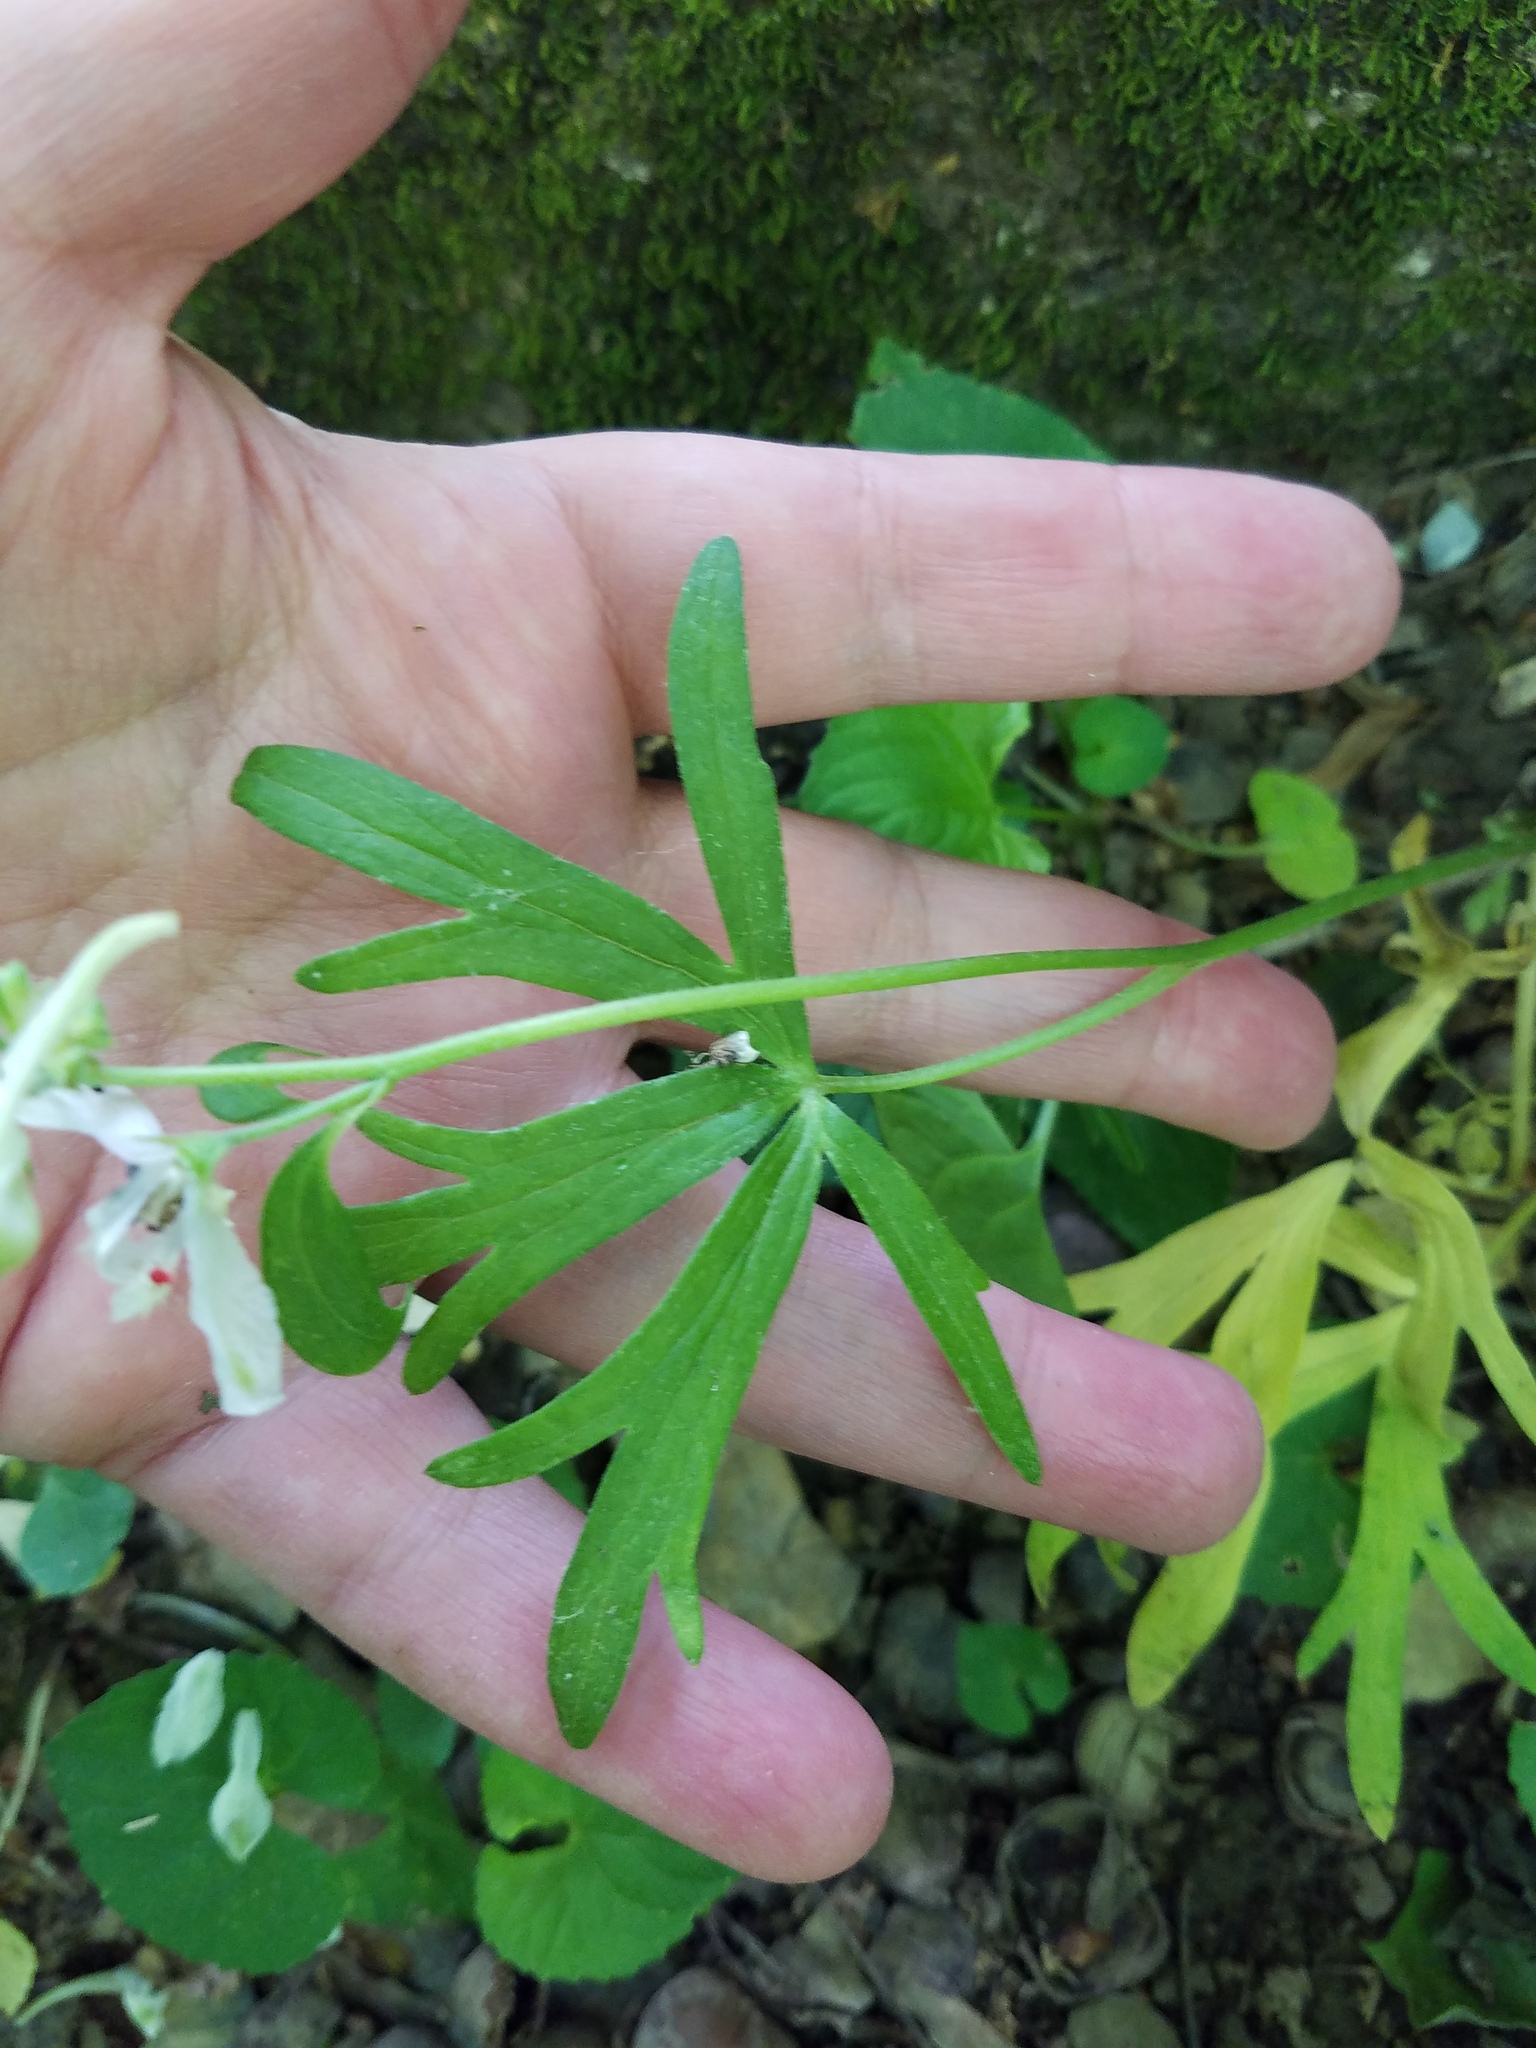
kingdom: Plantae
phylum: Tracheophyta
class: Magnoliopsida
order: Ranunculales
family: Ranunculaceae
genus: Delphinium
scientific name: Delphinium tricorne
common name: Dwarf larkspur
